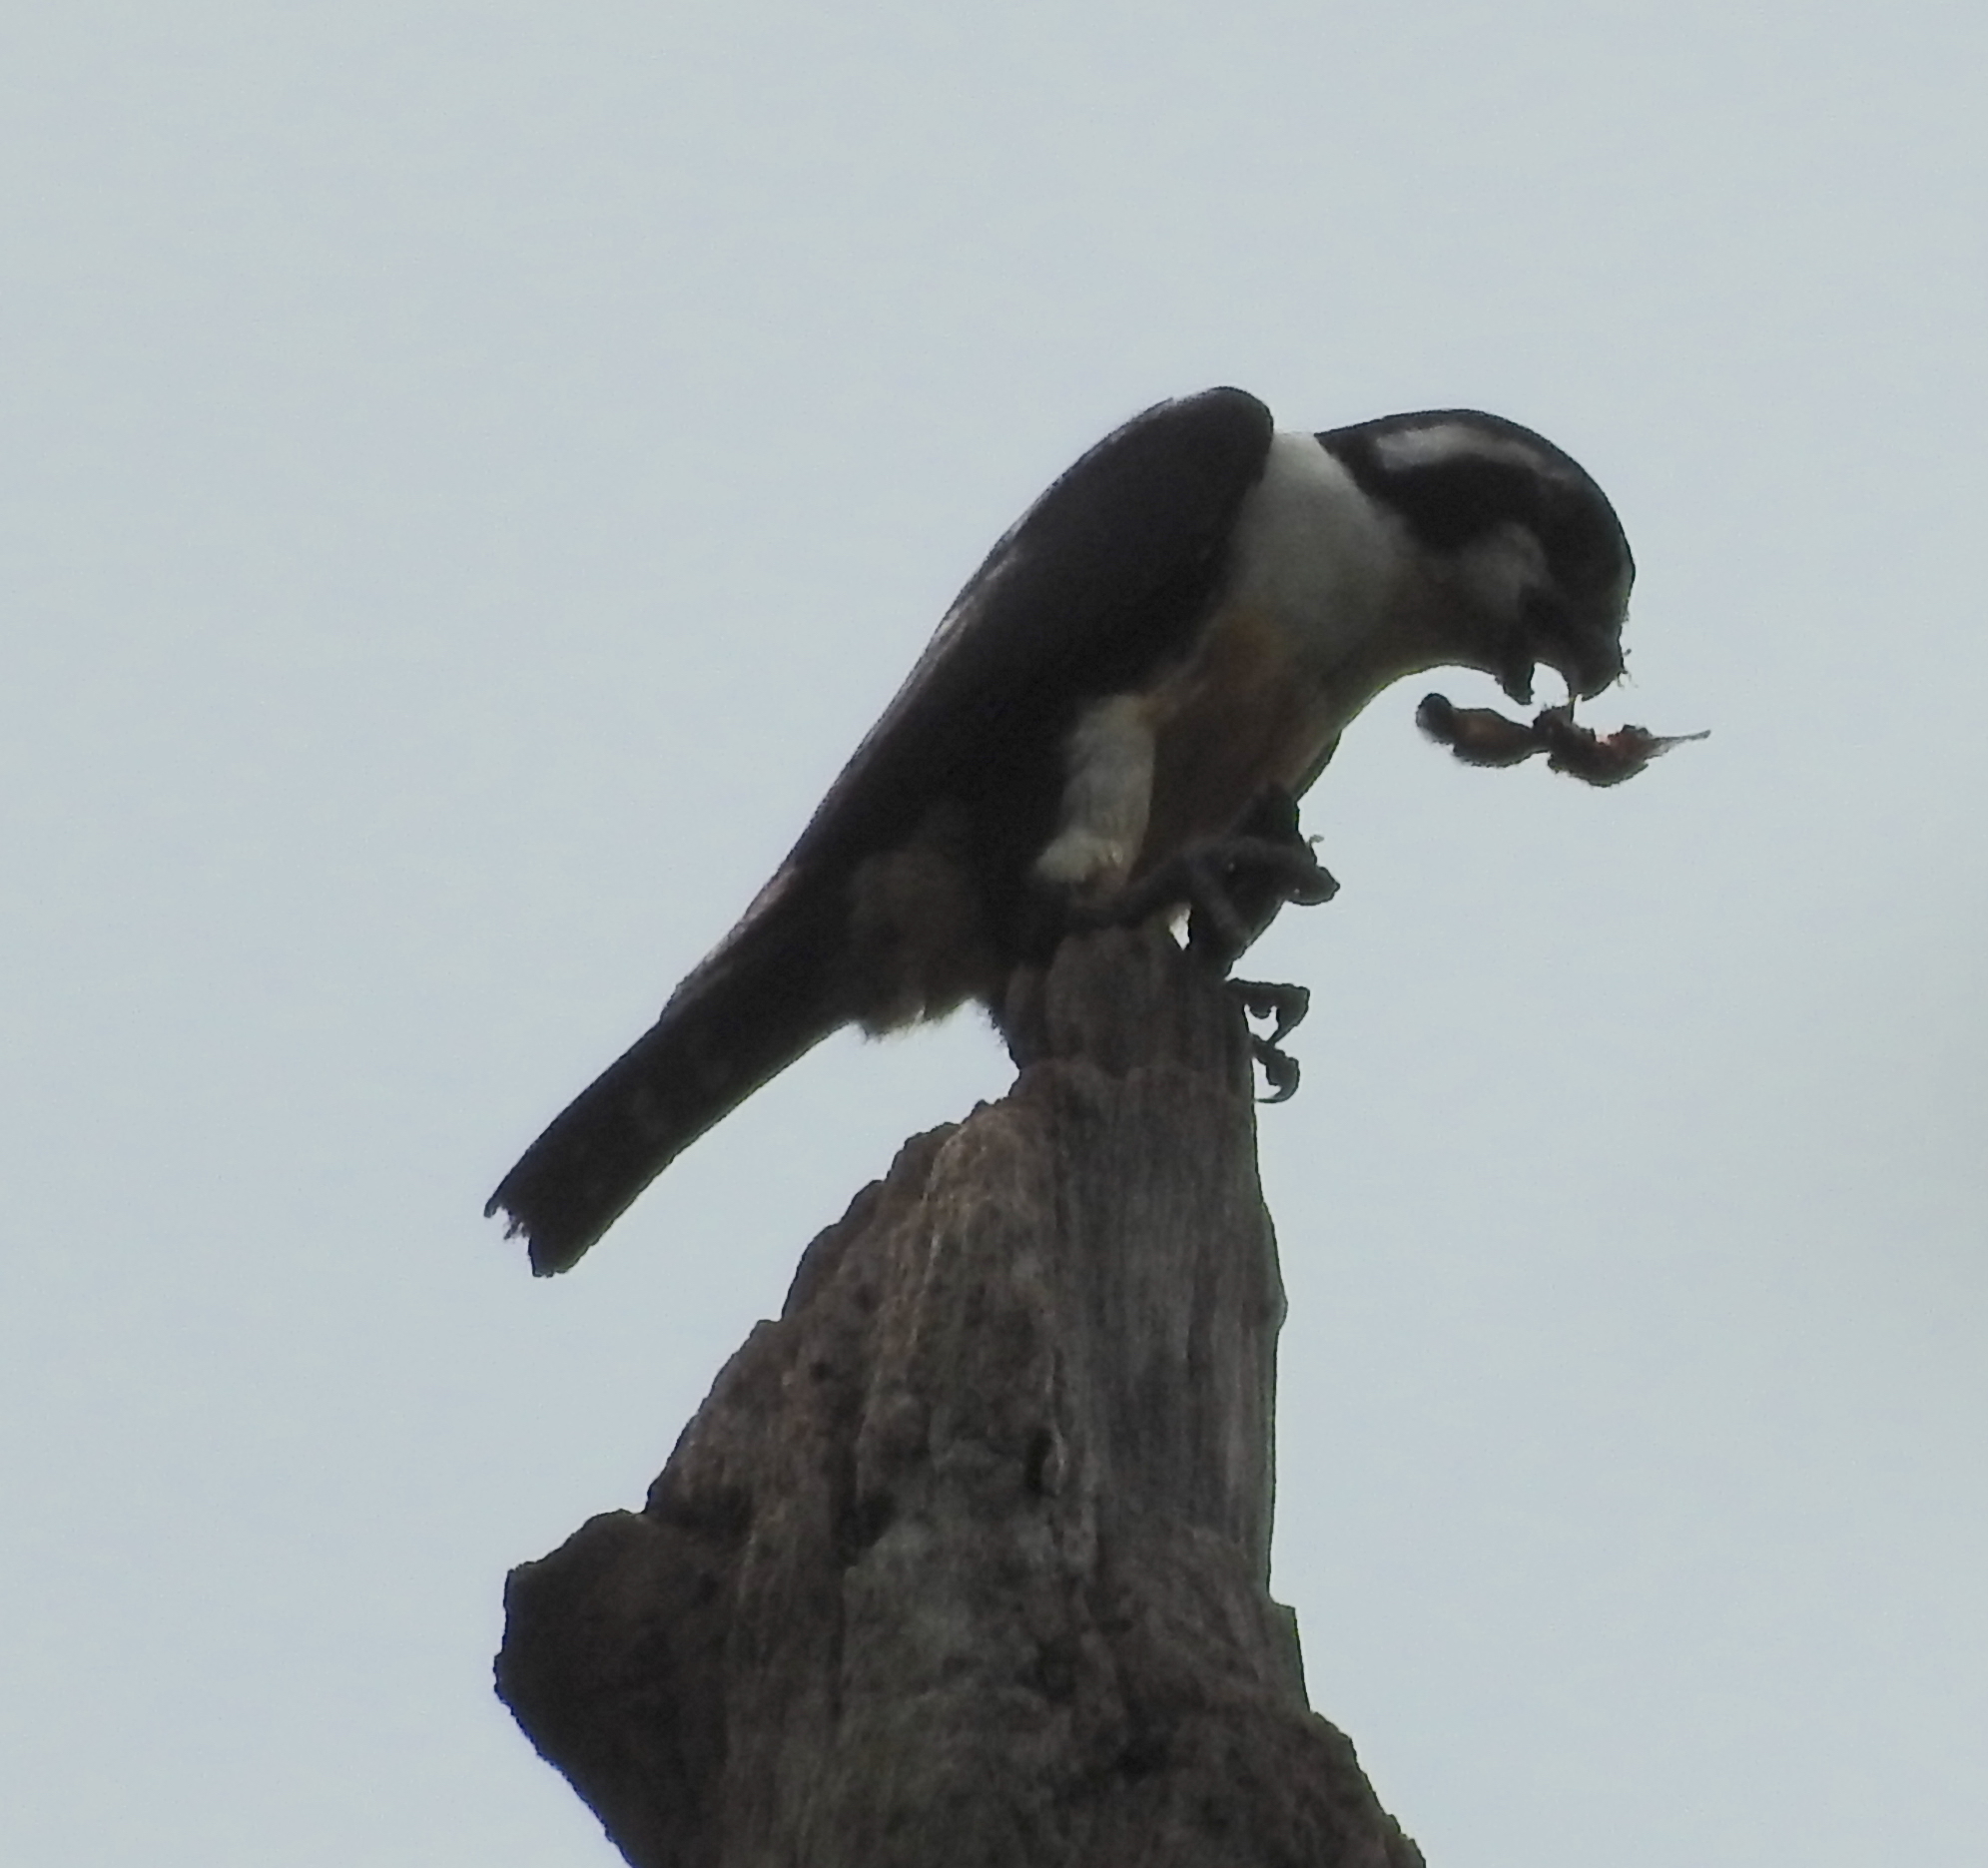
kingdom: Animalia
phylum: Chordata
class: Aves
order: Falconiformes
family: Falconidae
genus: Microhierax
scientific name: Microhierax fringillarius
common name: Black-thighed falconet
